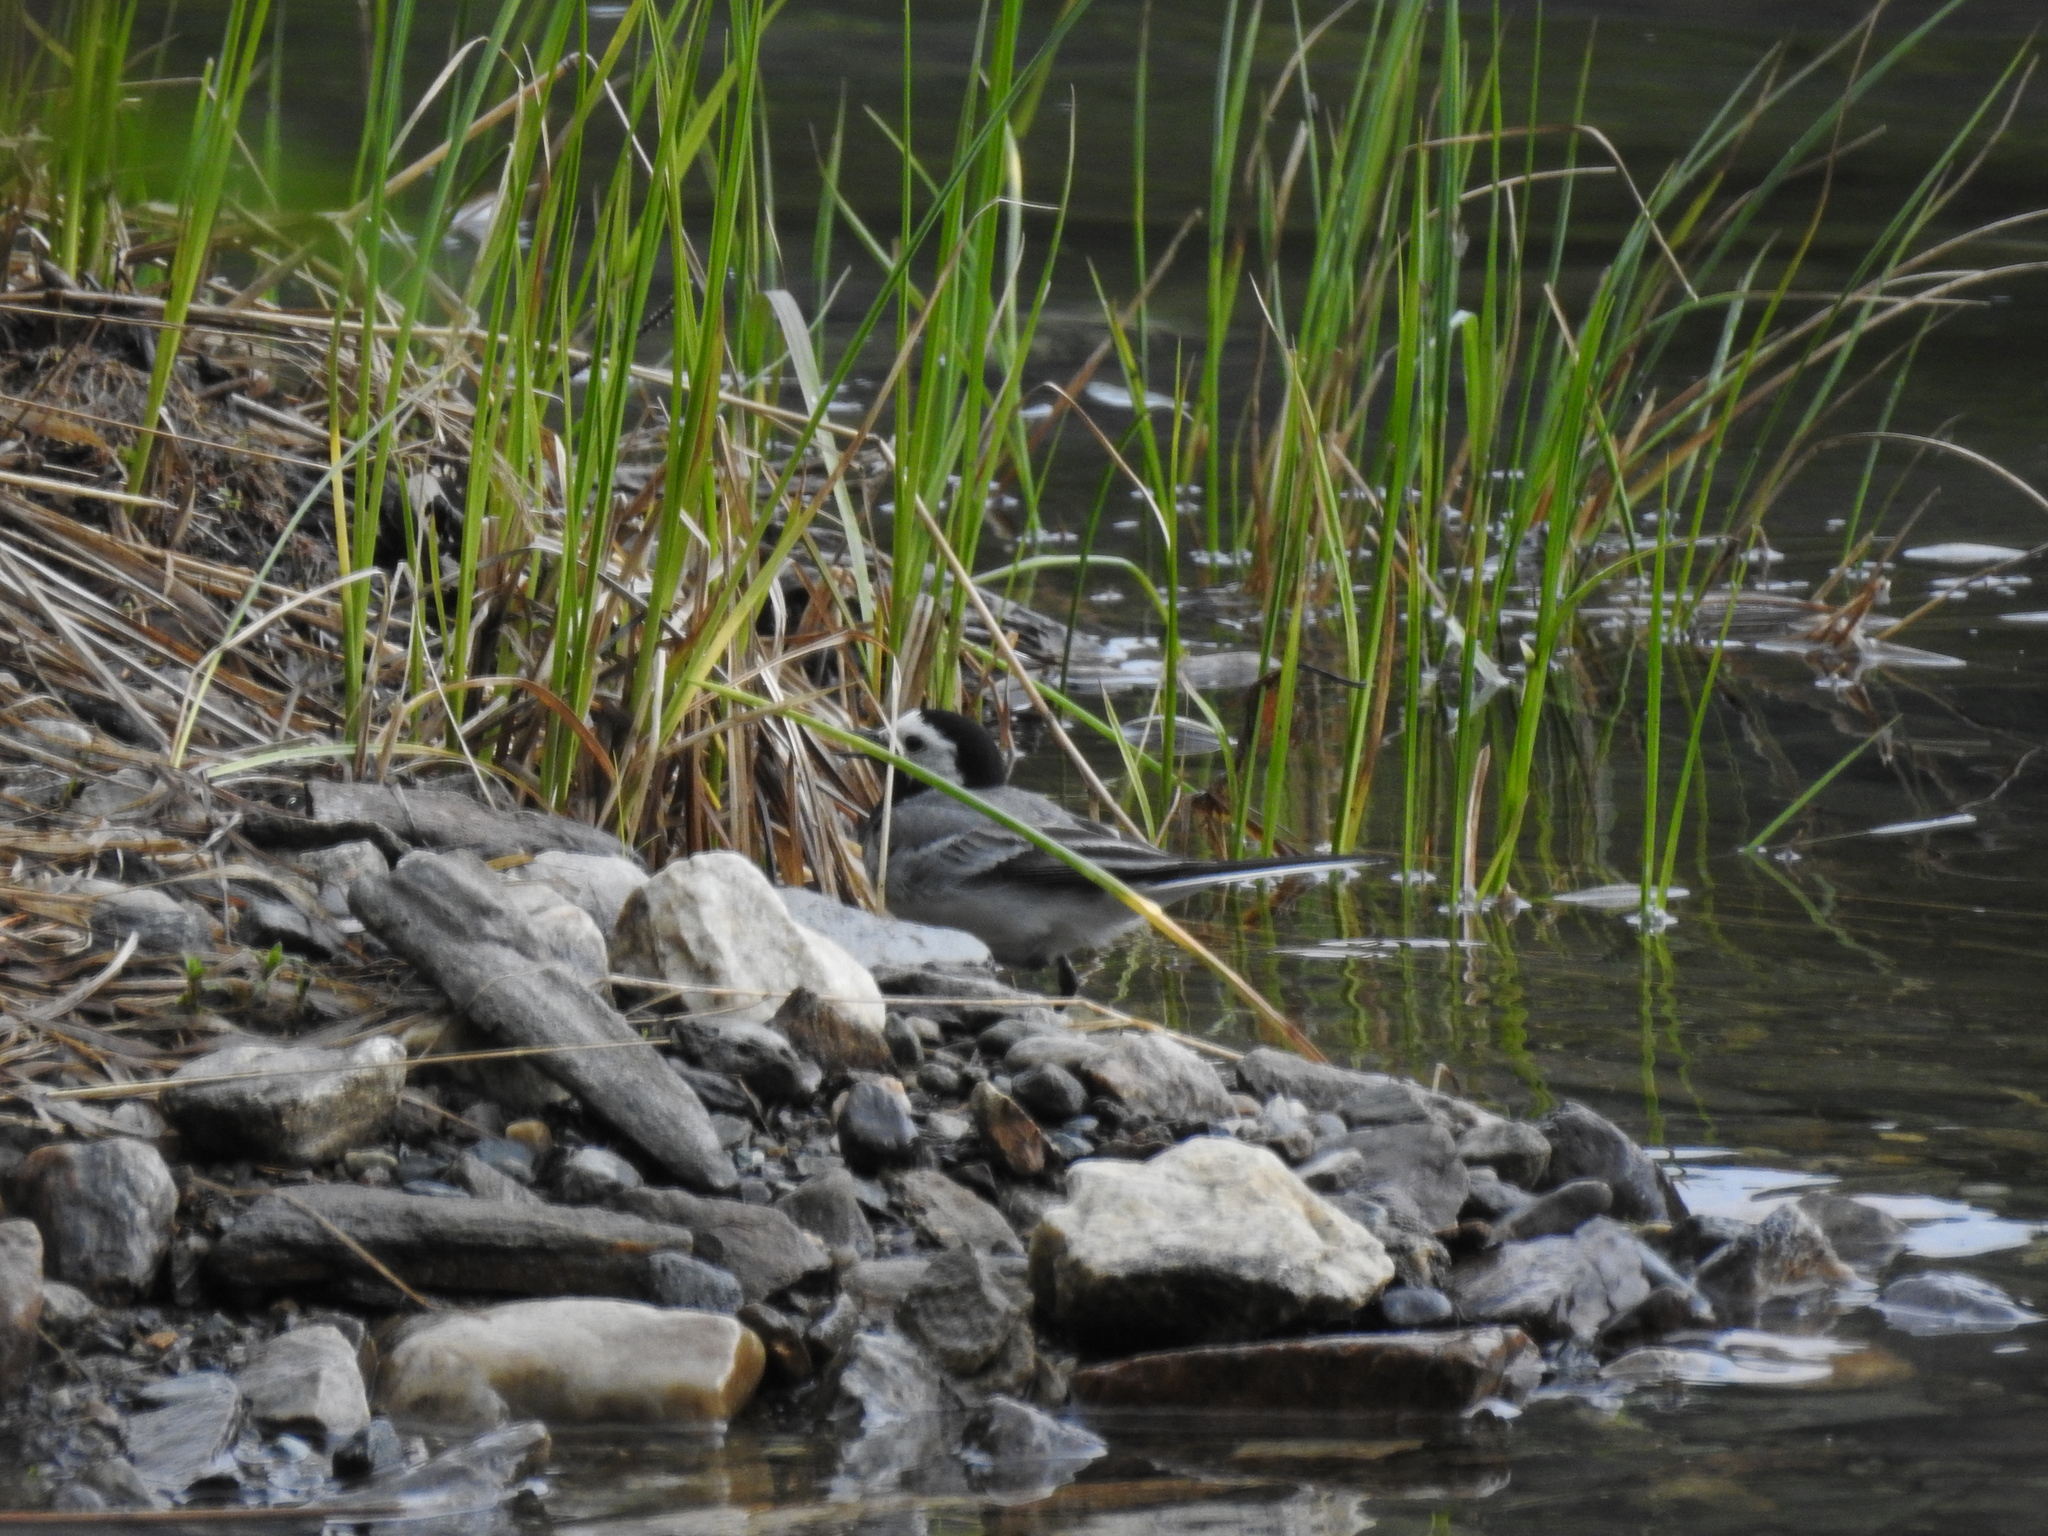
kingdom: Animalia
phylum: Chordata
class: Aves
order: Passeriformes
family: Motacillidae
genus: Motacilla
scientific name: Motacilla alba
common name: White wagtail
